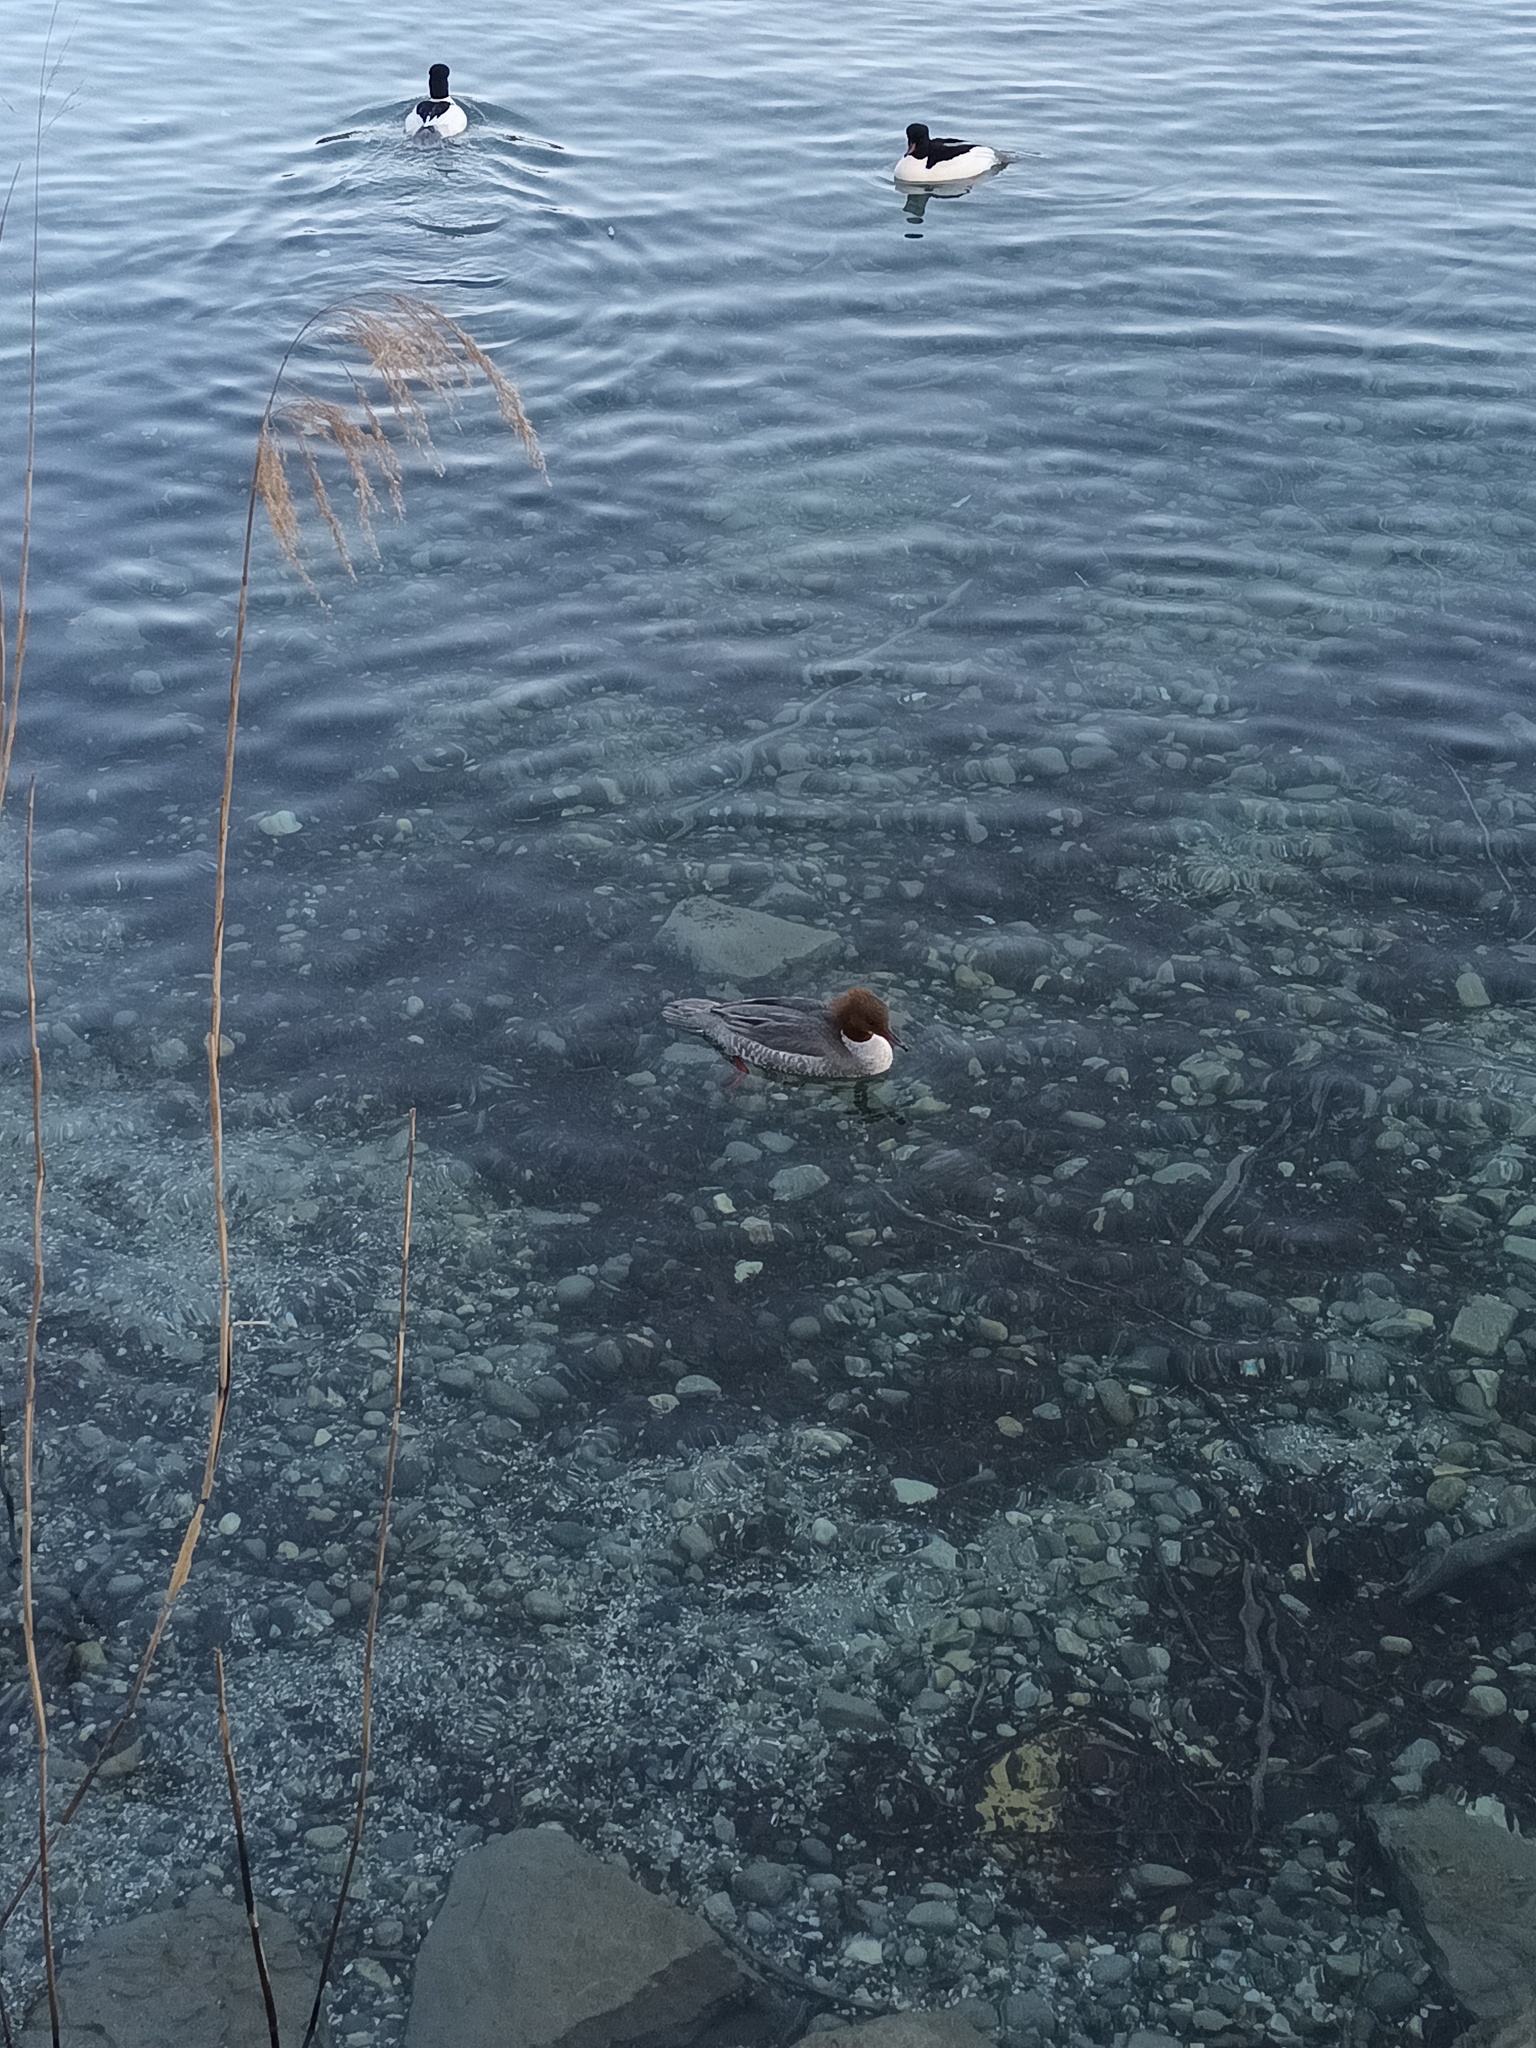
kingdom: Animalia
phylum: Chordata
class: Aves
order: Anseriformes
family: Anatidae
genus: Mergus
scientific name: Mergus merganser
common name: Common merganser
